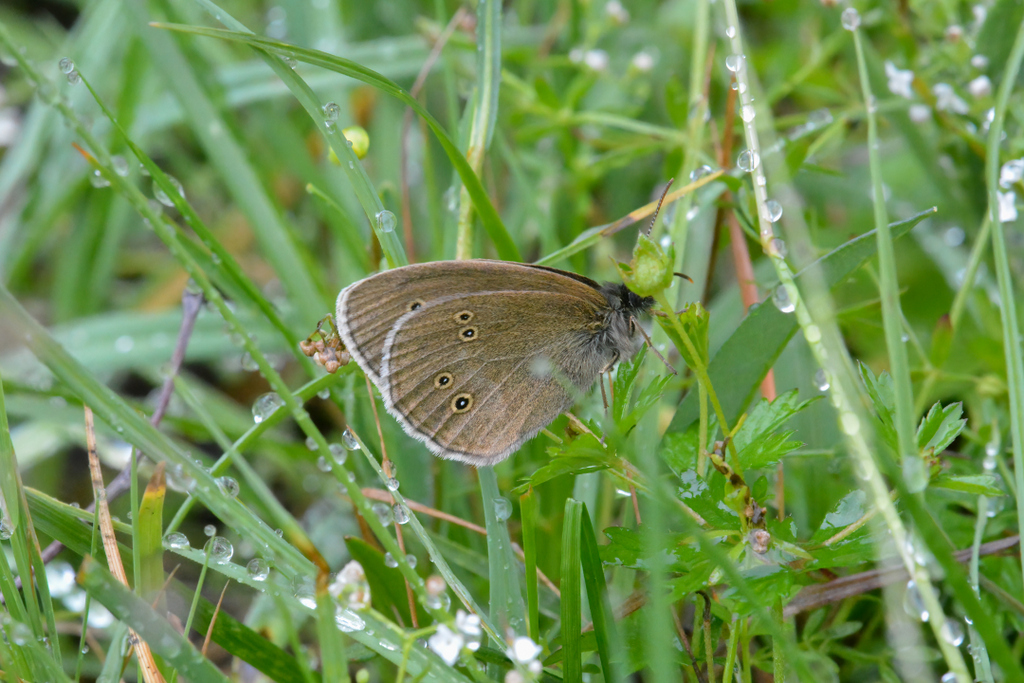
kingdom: Animalia
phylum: Arthropoda
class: Insecta
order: Lepidoptera
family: Nymphalidae
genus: Aphantopus
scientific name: Aphantopus hyperantus
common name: Ringlet
